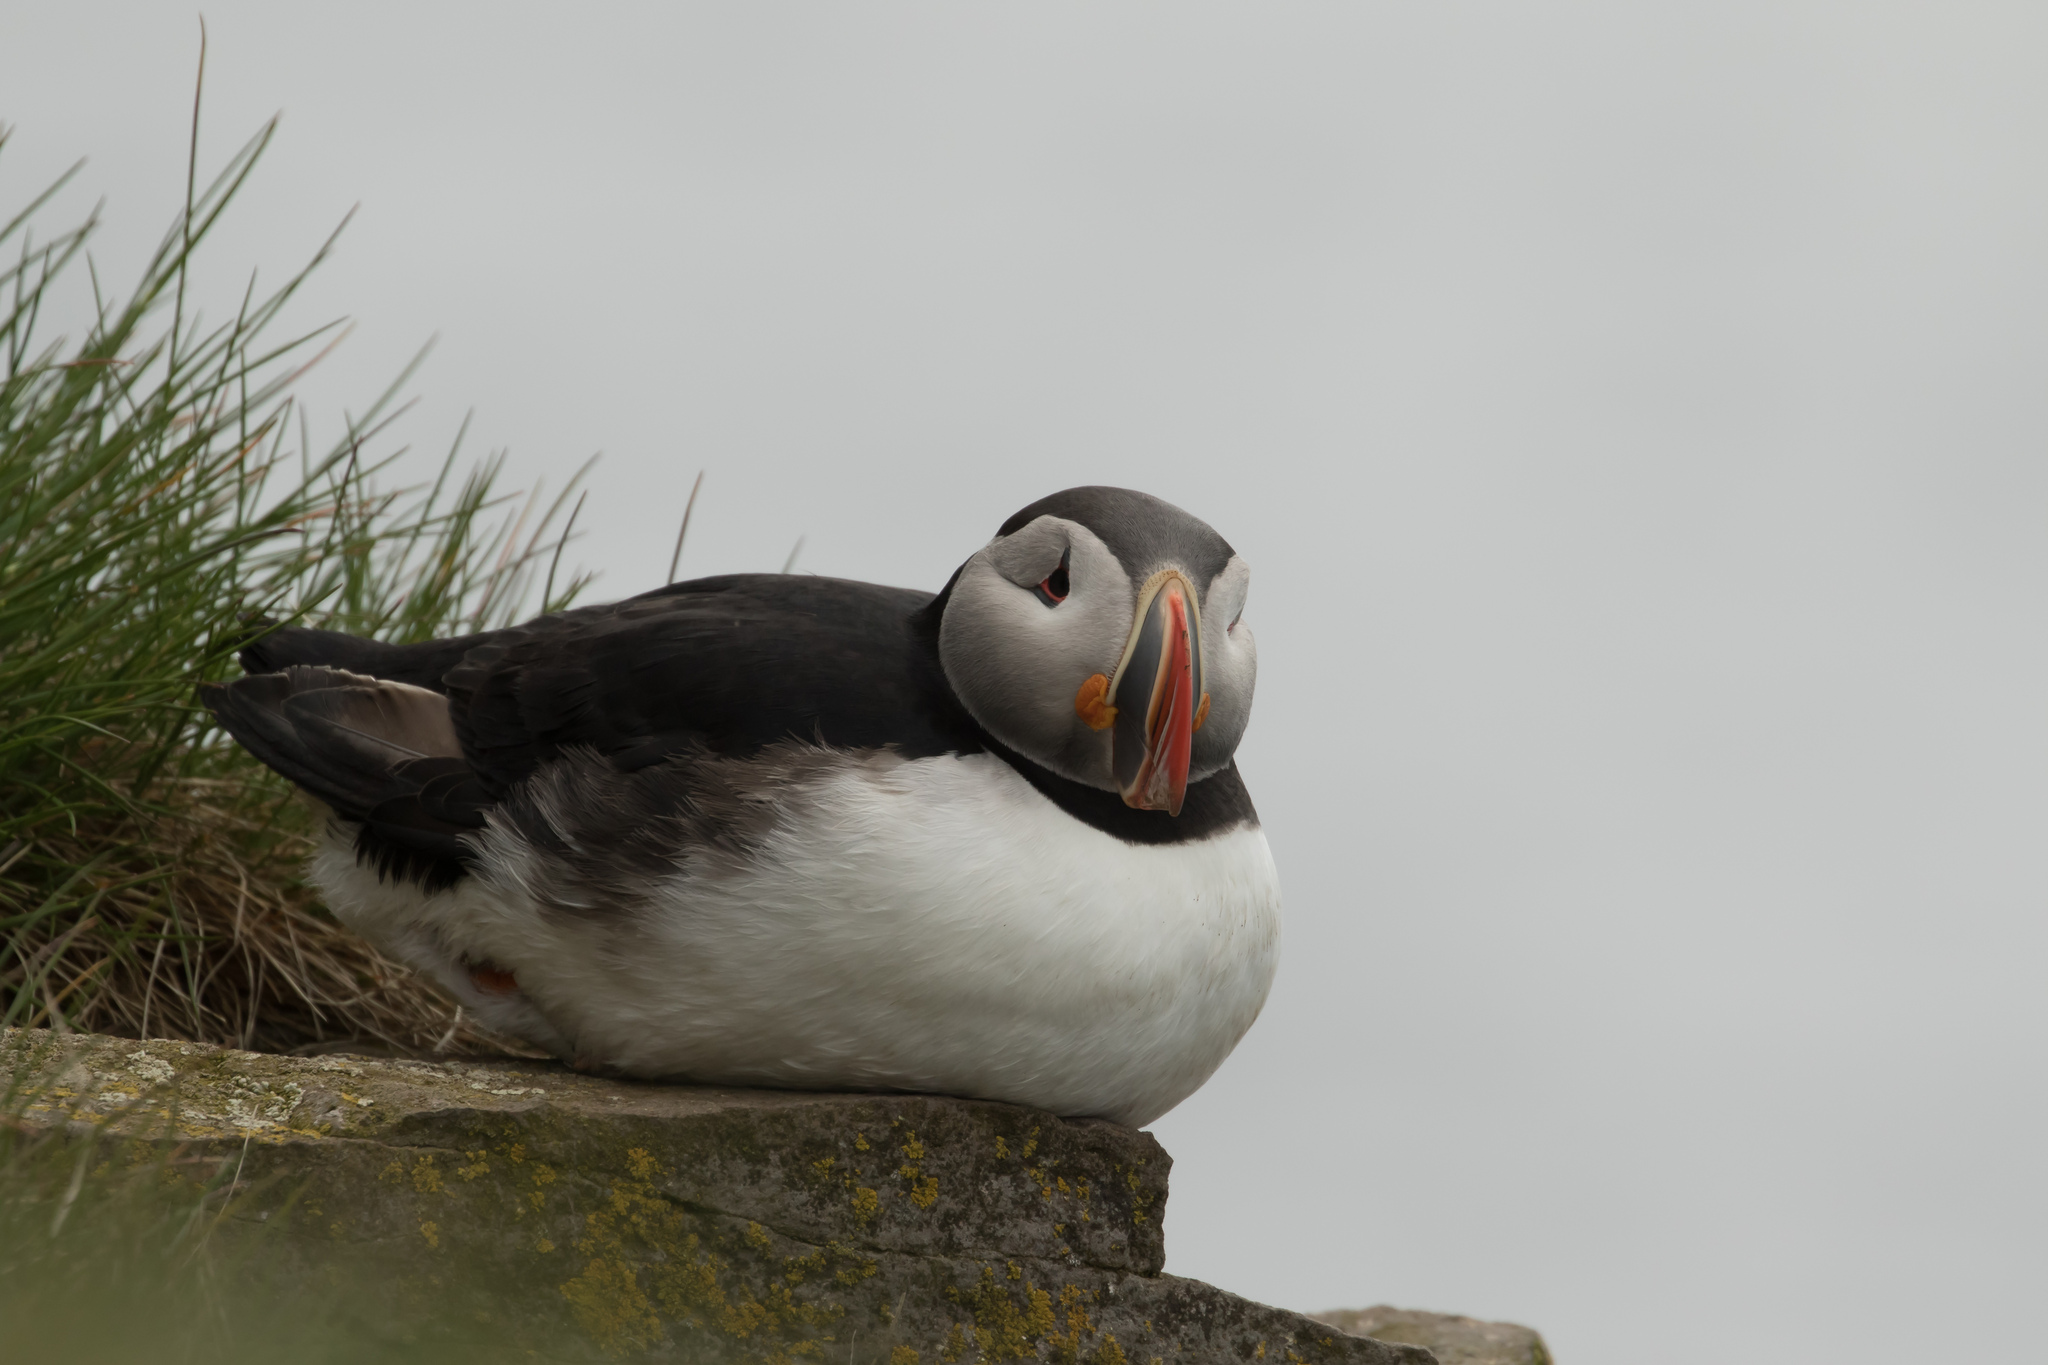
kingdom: Animalia
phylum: Chordata
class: Aves
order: Charadriiformes
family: Alcidae
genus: Fratercula
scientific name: Fratercula arctica
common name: Atlantic puffin
